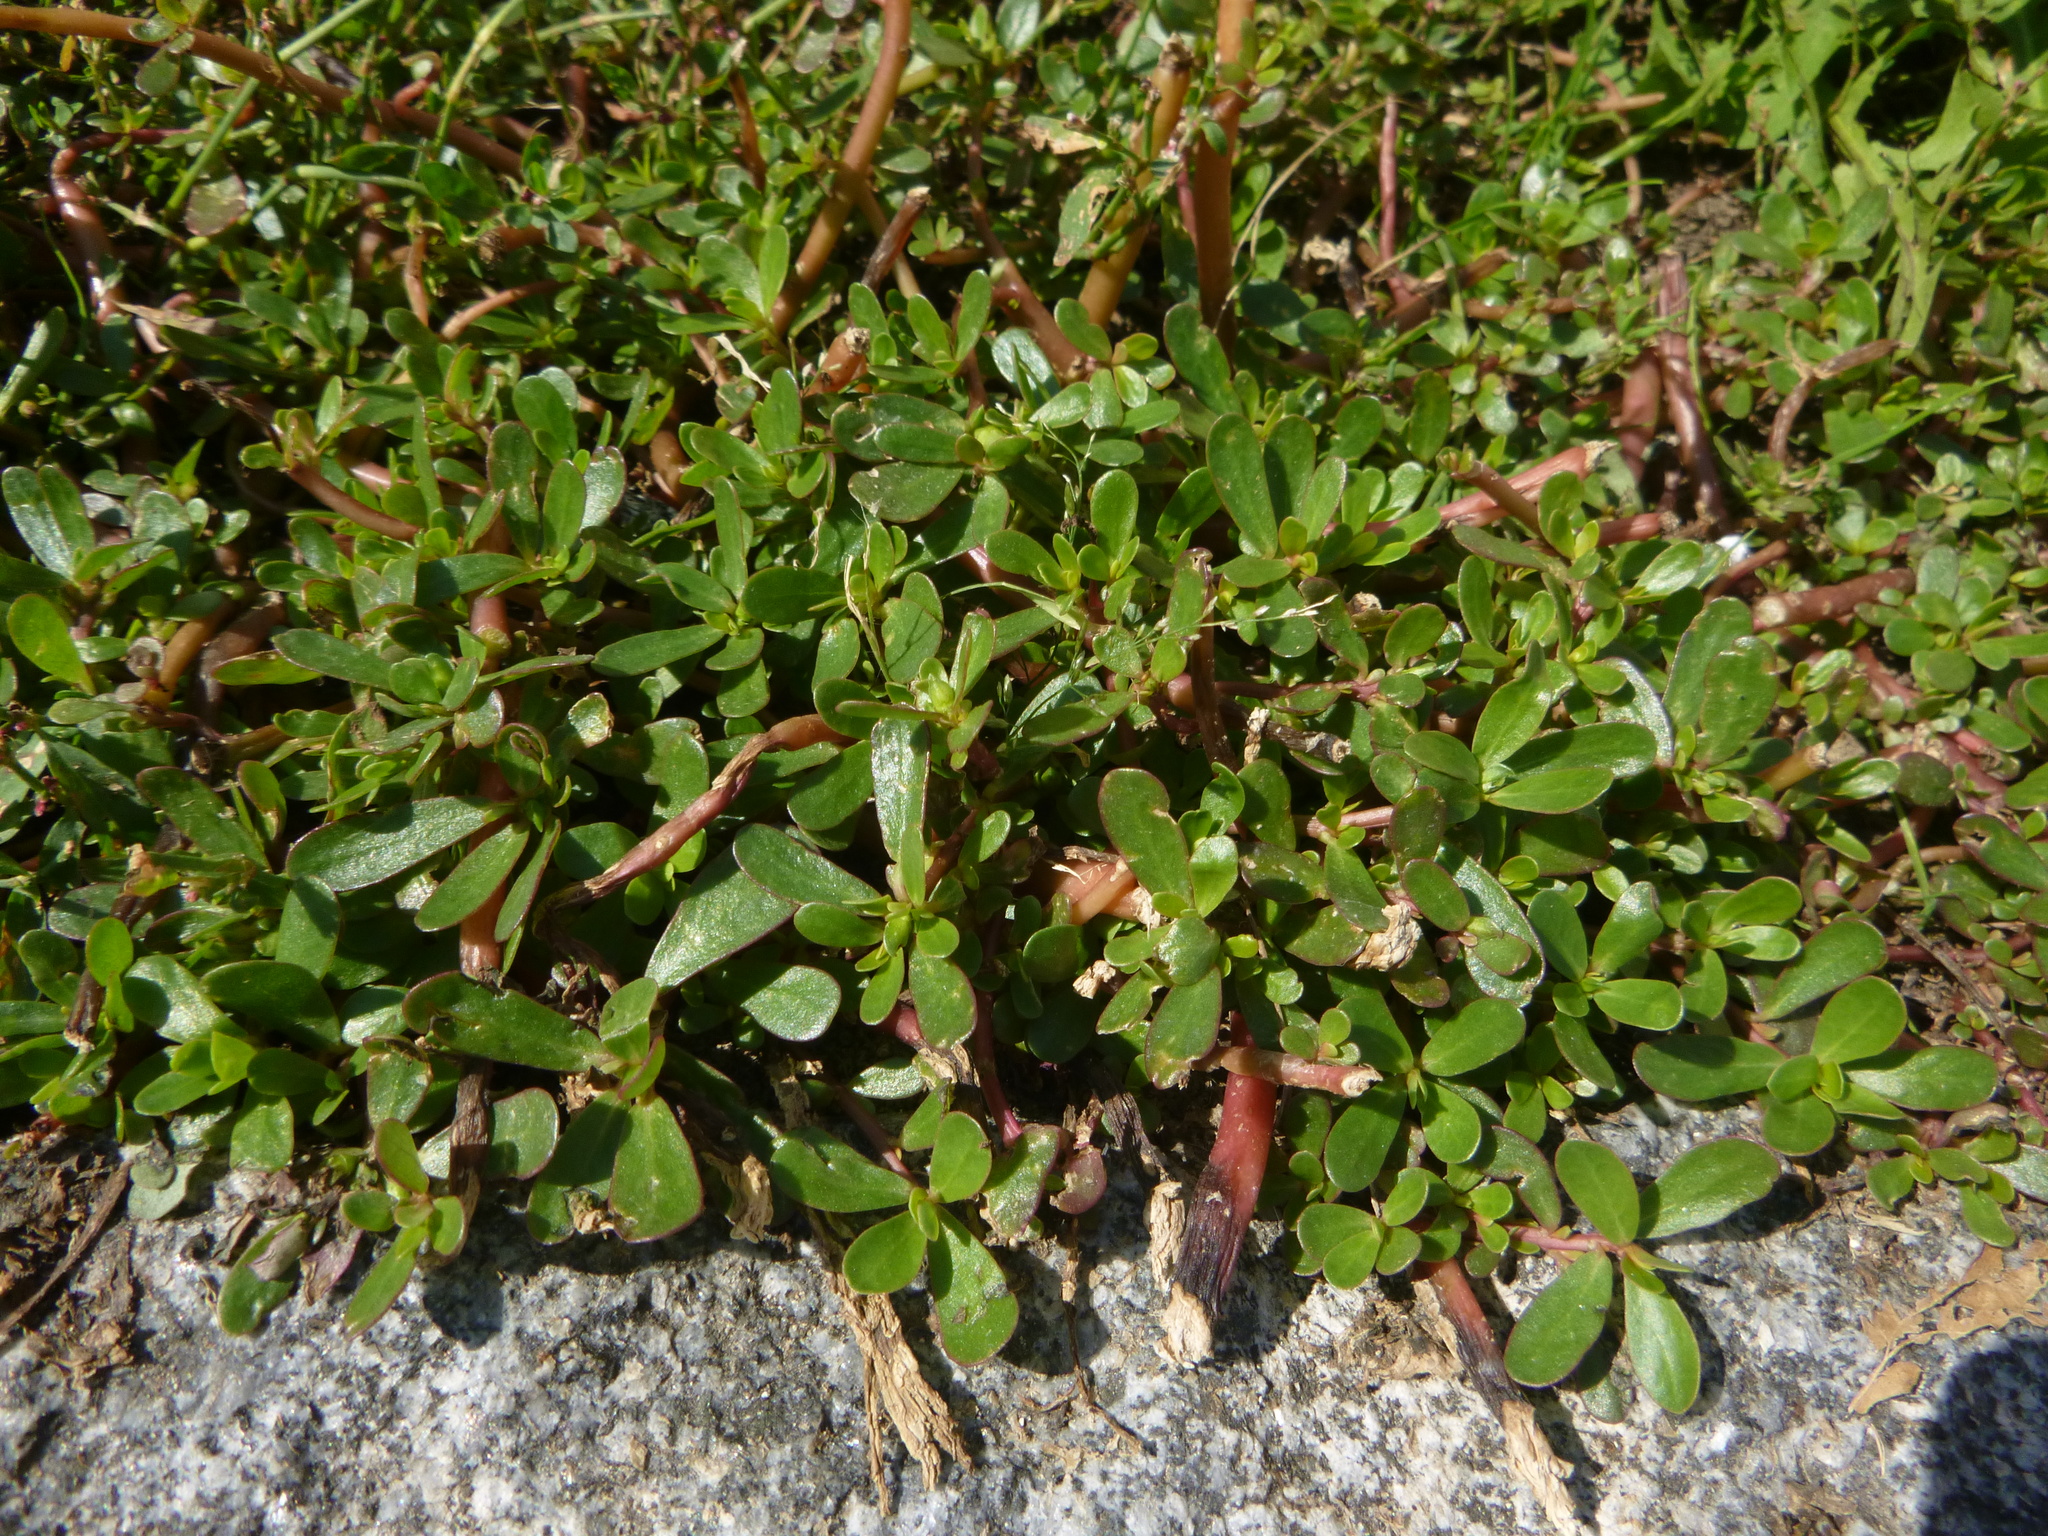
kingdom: Plantae
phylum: Tracheophyta
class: Magnoliopsida
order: Caryophyllales
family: Portulacaceae
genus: Portulaca
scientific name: Portulaca oleracea
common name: Common purslane
